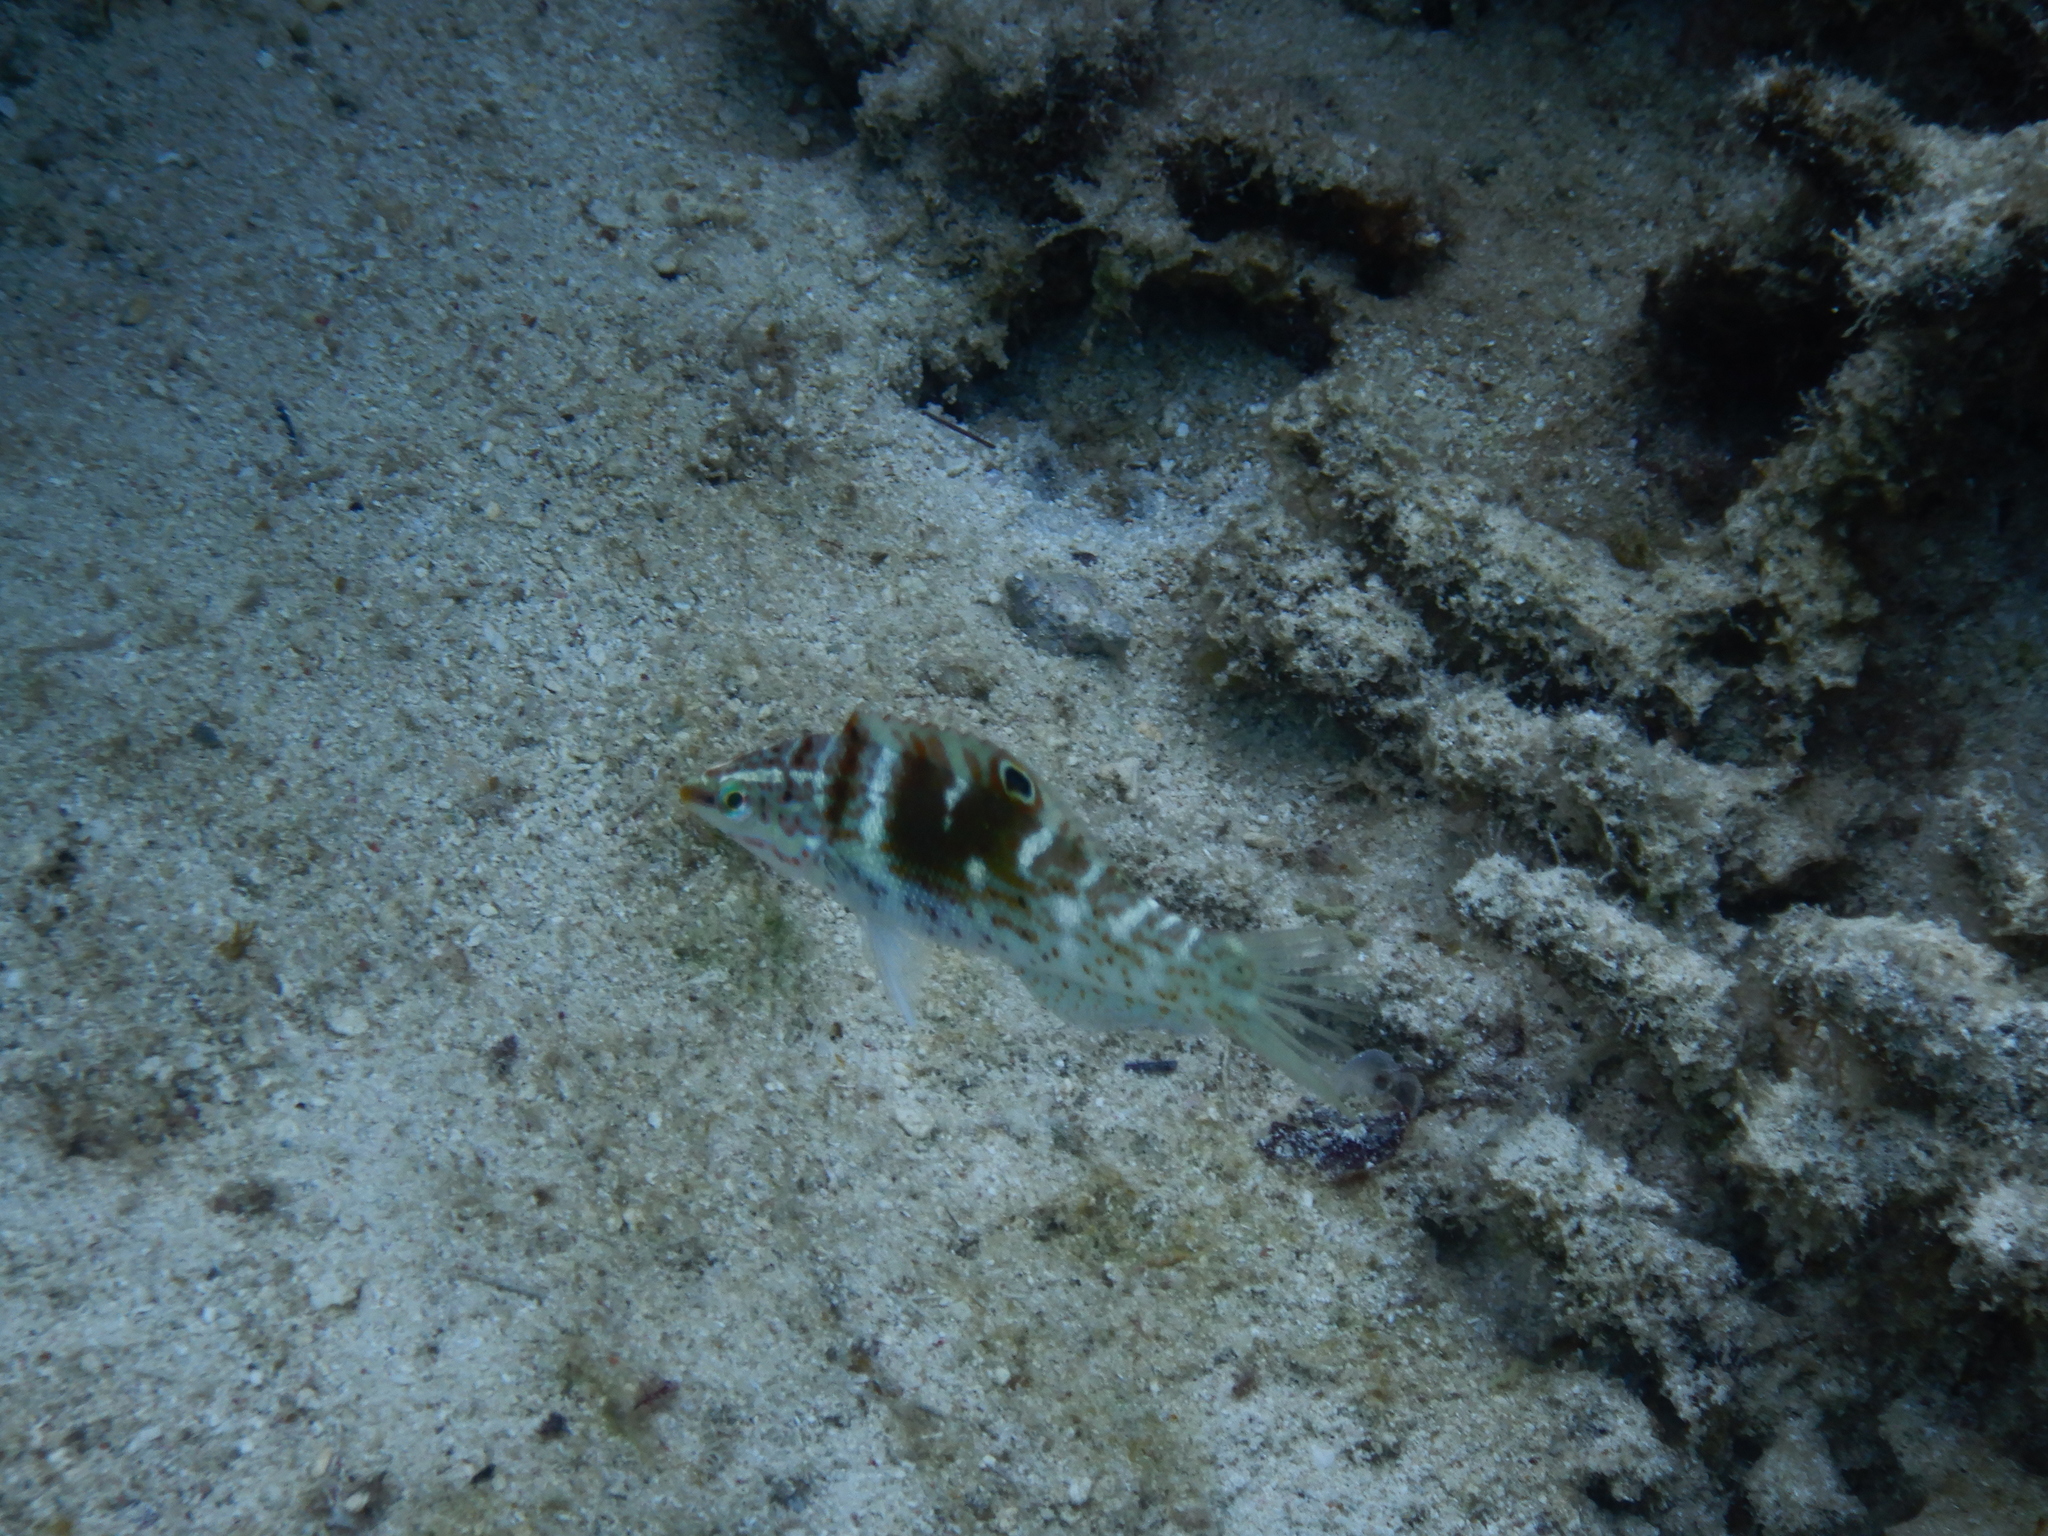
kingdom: Animalia
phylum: Chordata
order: Perciformes
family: Labridae
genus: Coris
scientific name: Coris batuensis
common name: Batu coris
